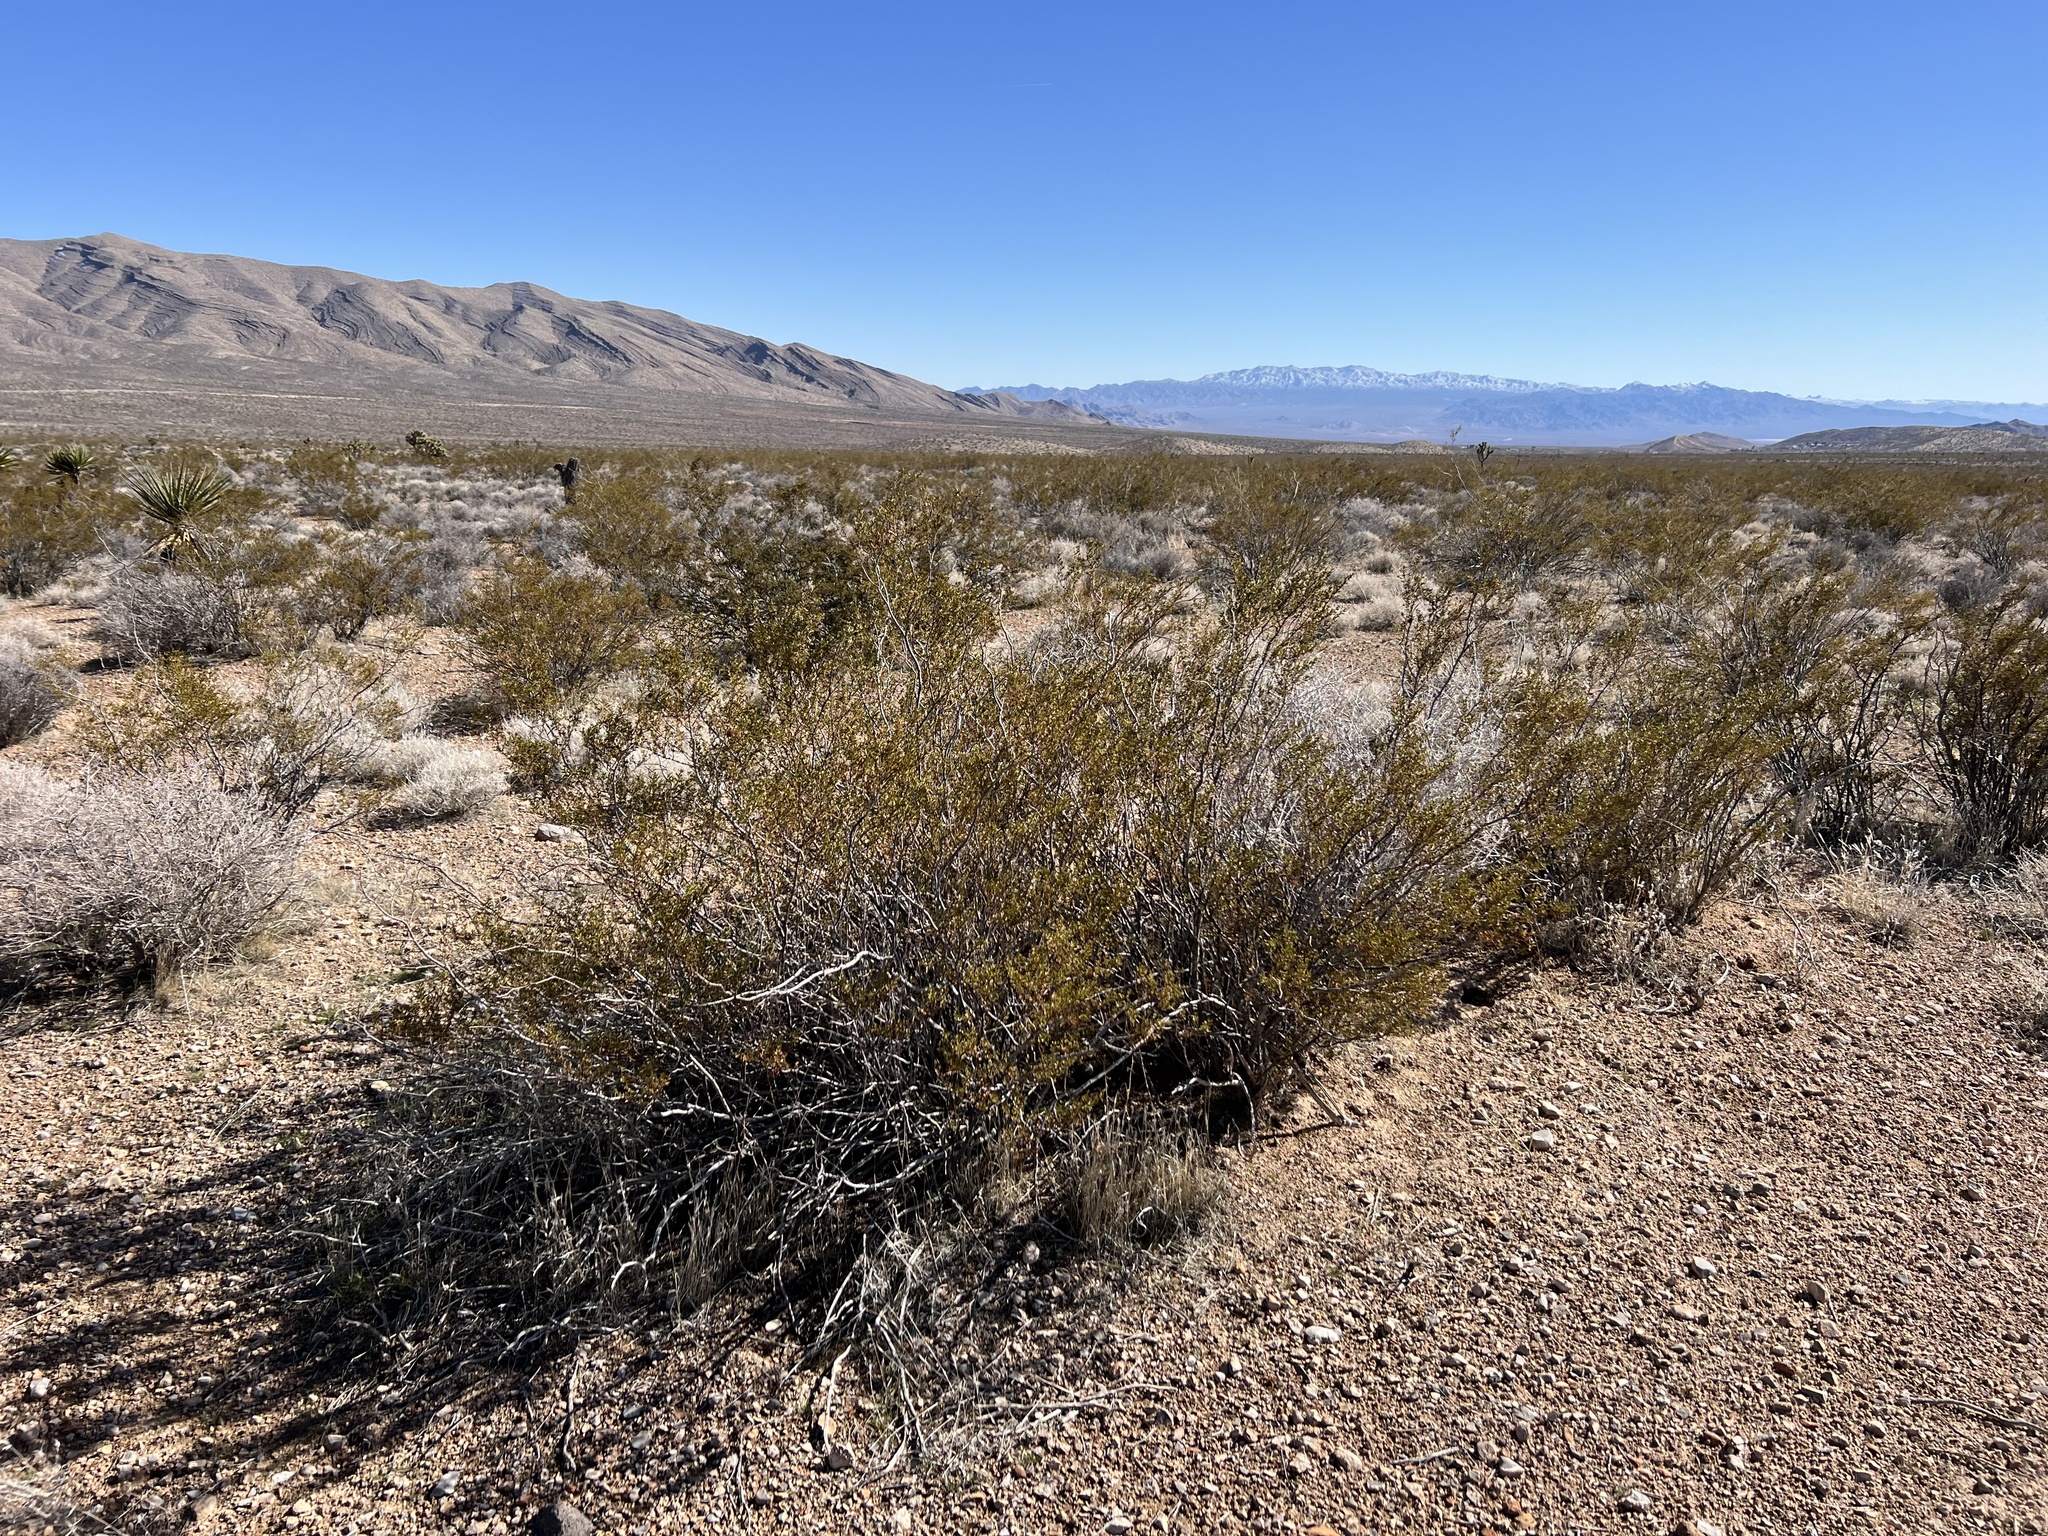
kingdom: Plantae
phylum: Tracheophyta
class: Magnoliopsida
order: Zygophyllales
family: Zygophyllaceae
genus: Larrea
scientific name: Larrea tridentata
